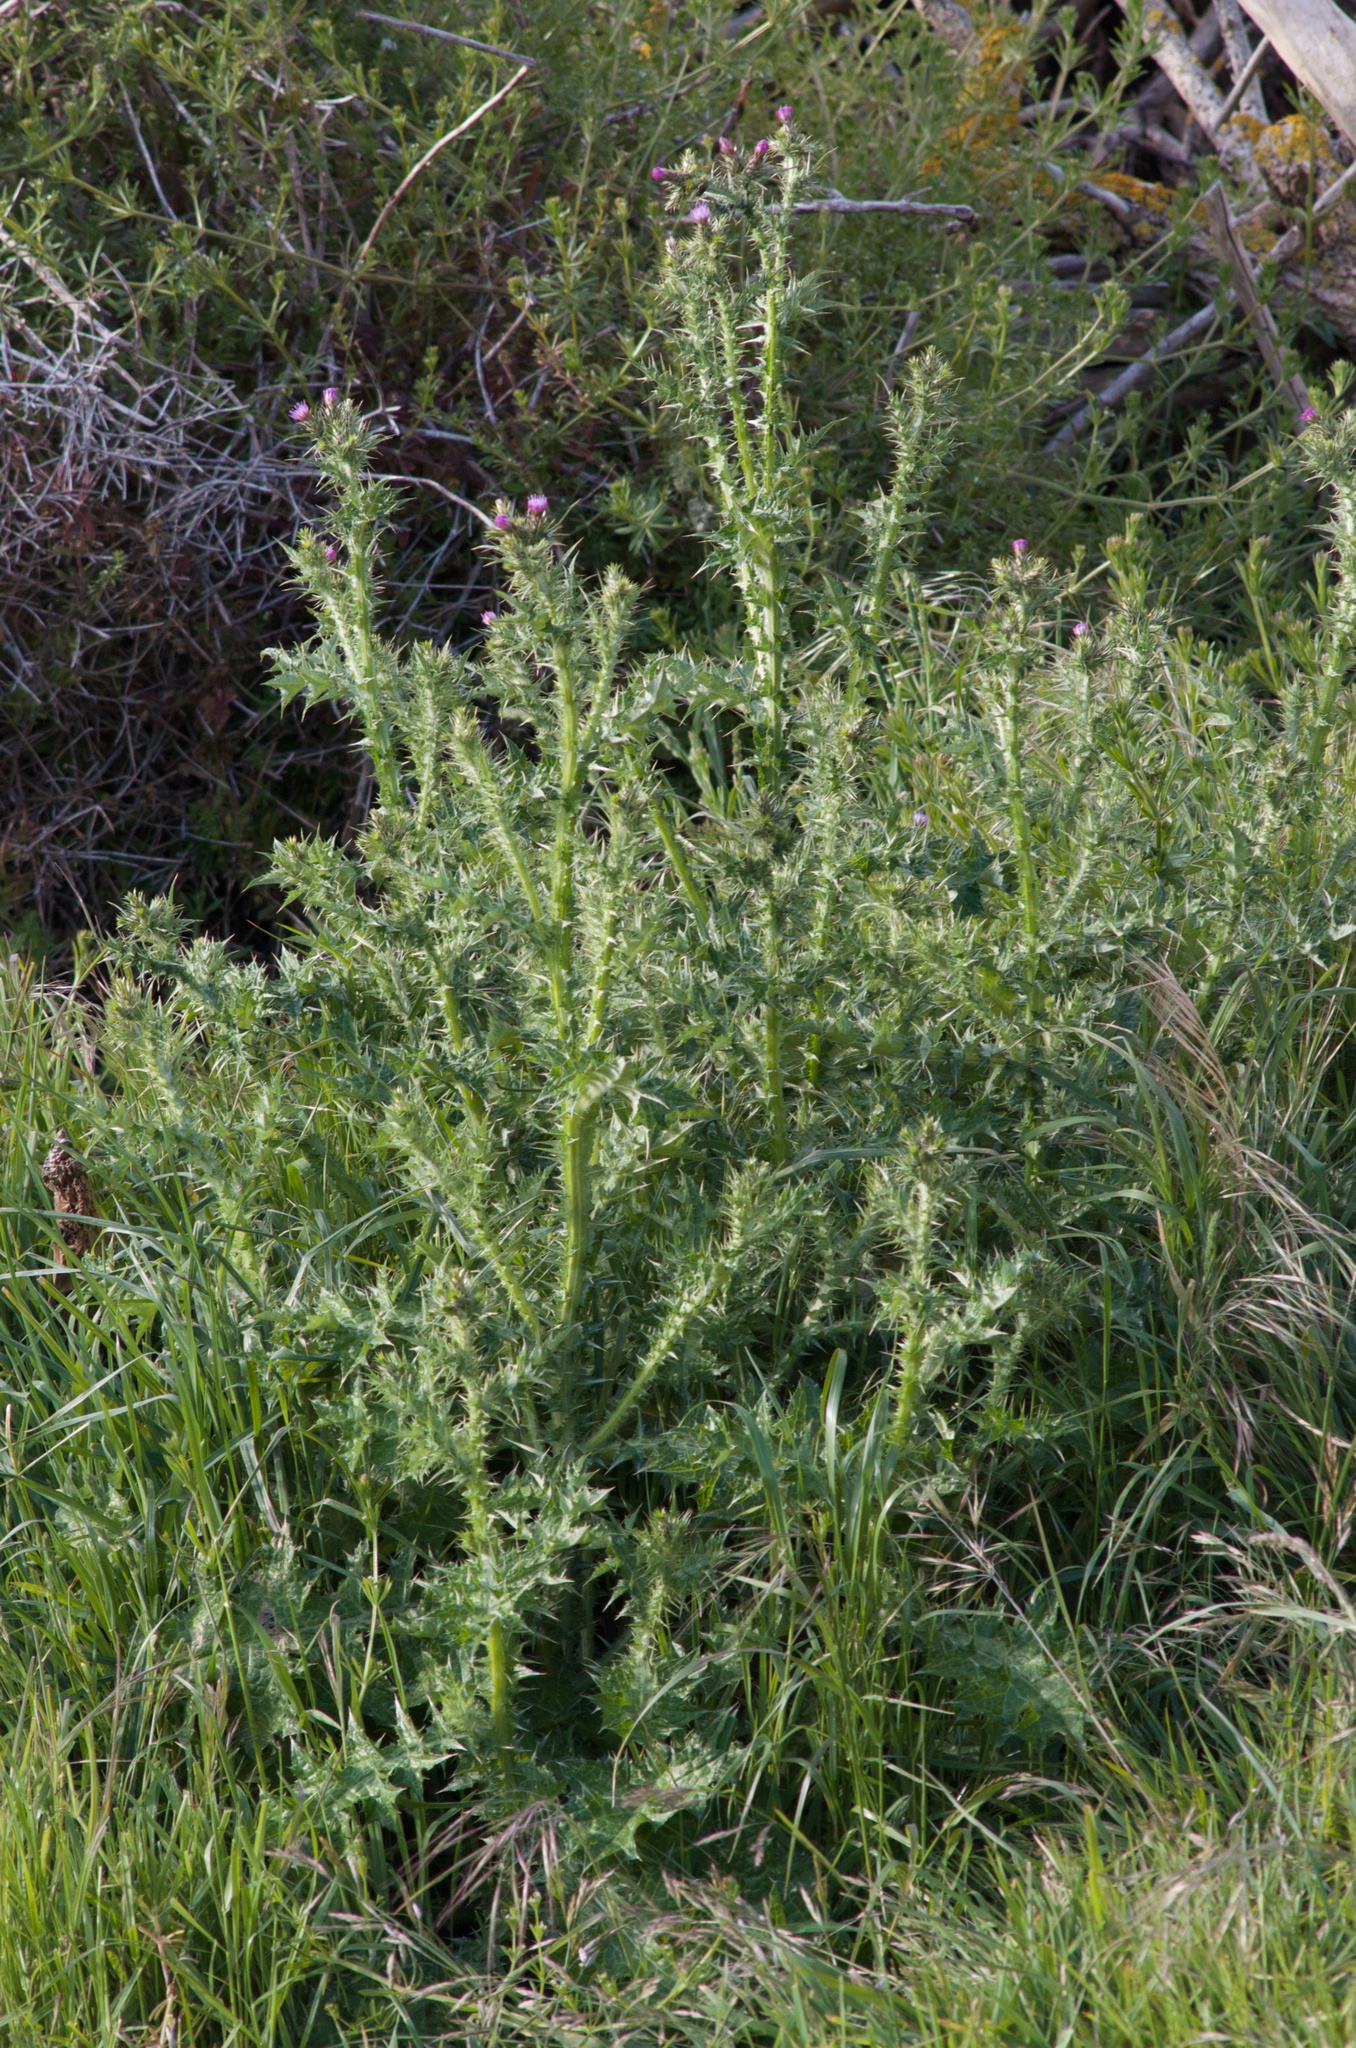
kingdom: Plantae
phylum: Tracheophyta
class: Magnoliopsida
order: Asterales
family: Asteraceae
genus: Carduus
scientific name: Carduus tenuiflorus
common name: Slender thistle
